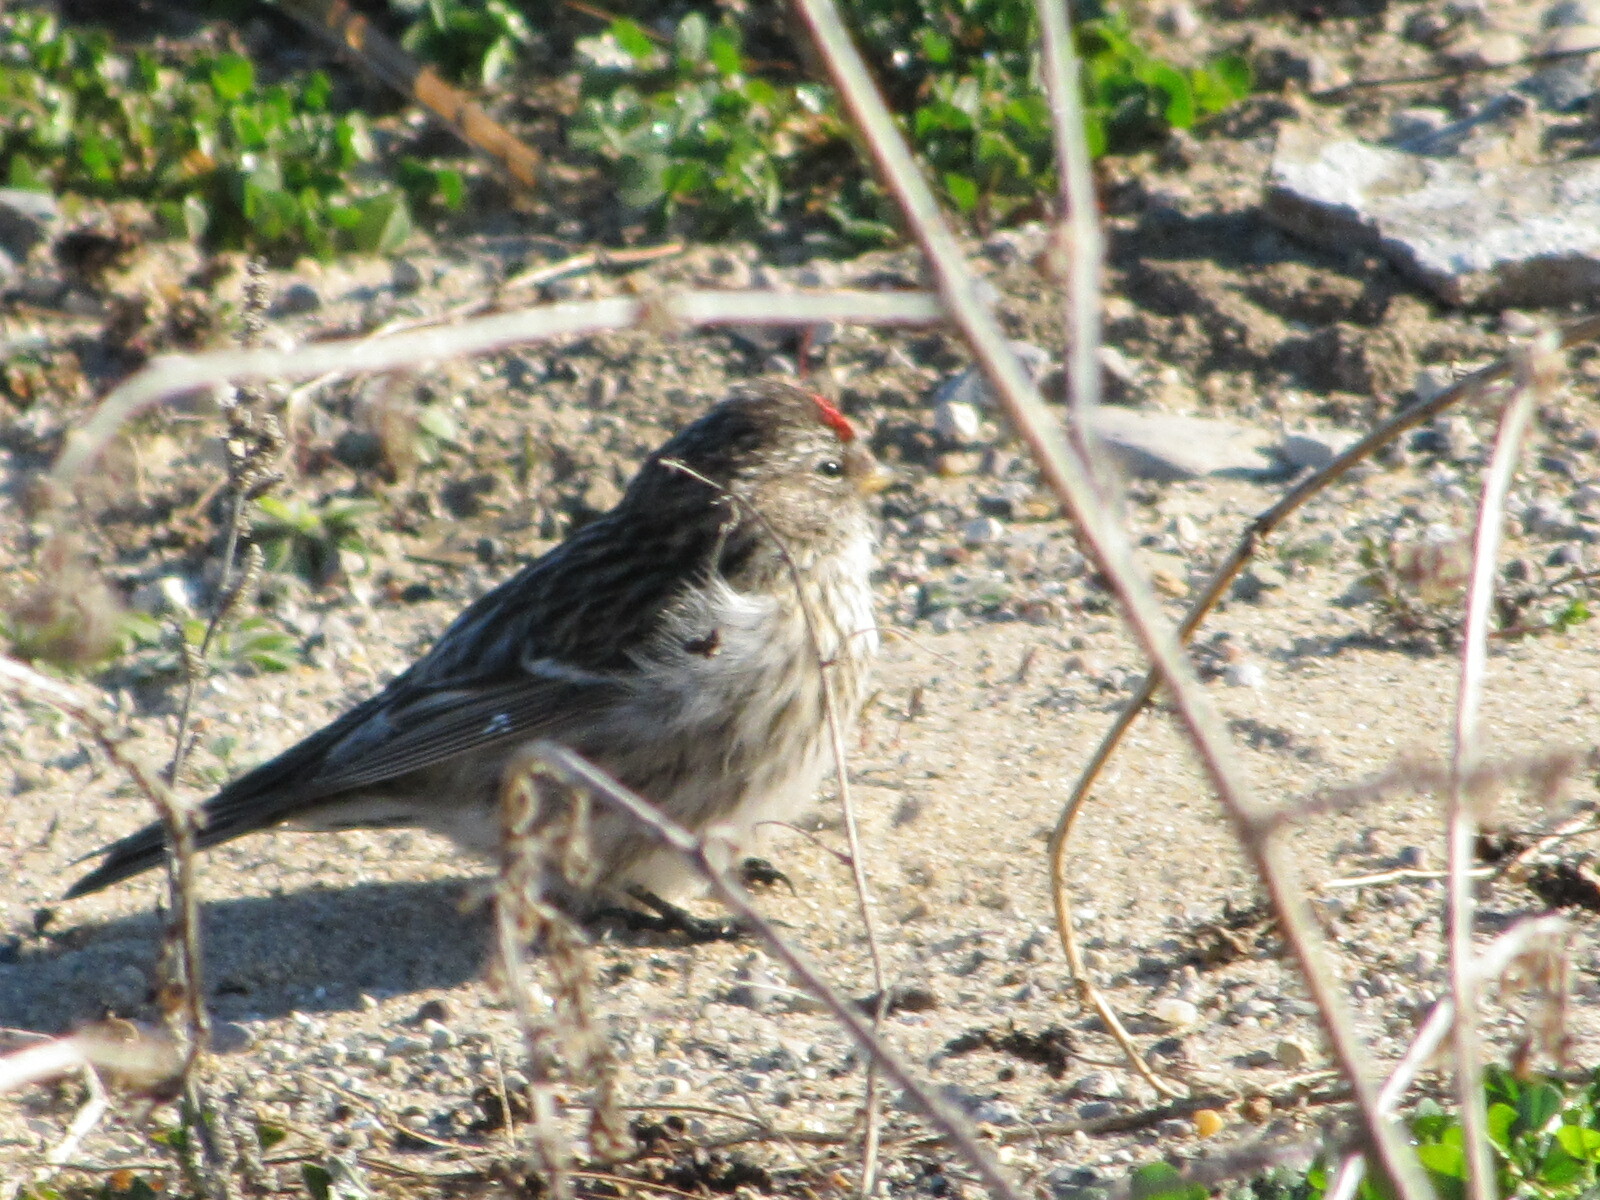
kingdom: Animalia
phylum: Chordata
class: Aves
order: Passeriformes
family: Fringillidae
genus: Acanthis
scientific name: Acanthis flammea
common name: Common redpoll
